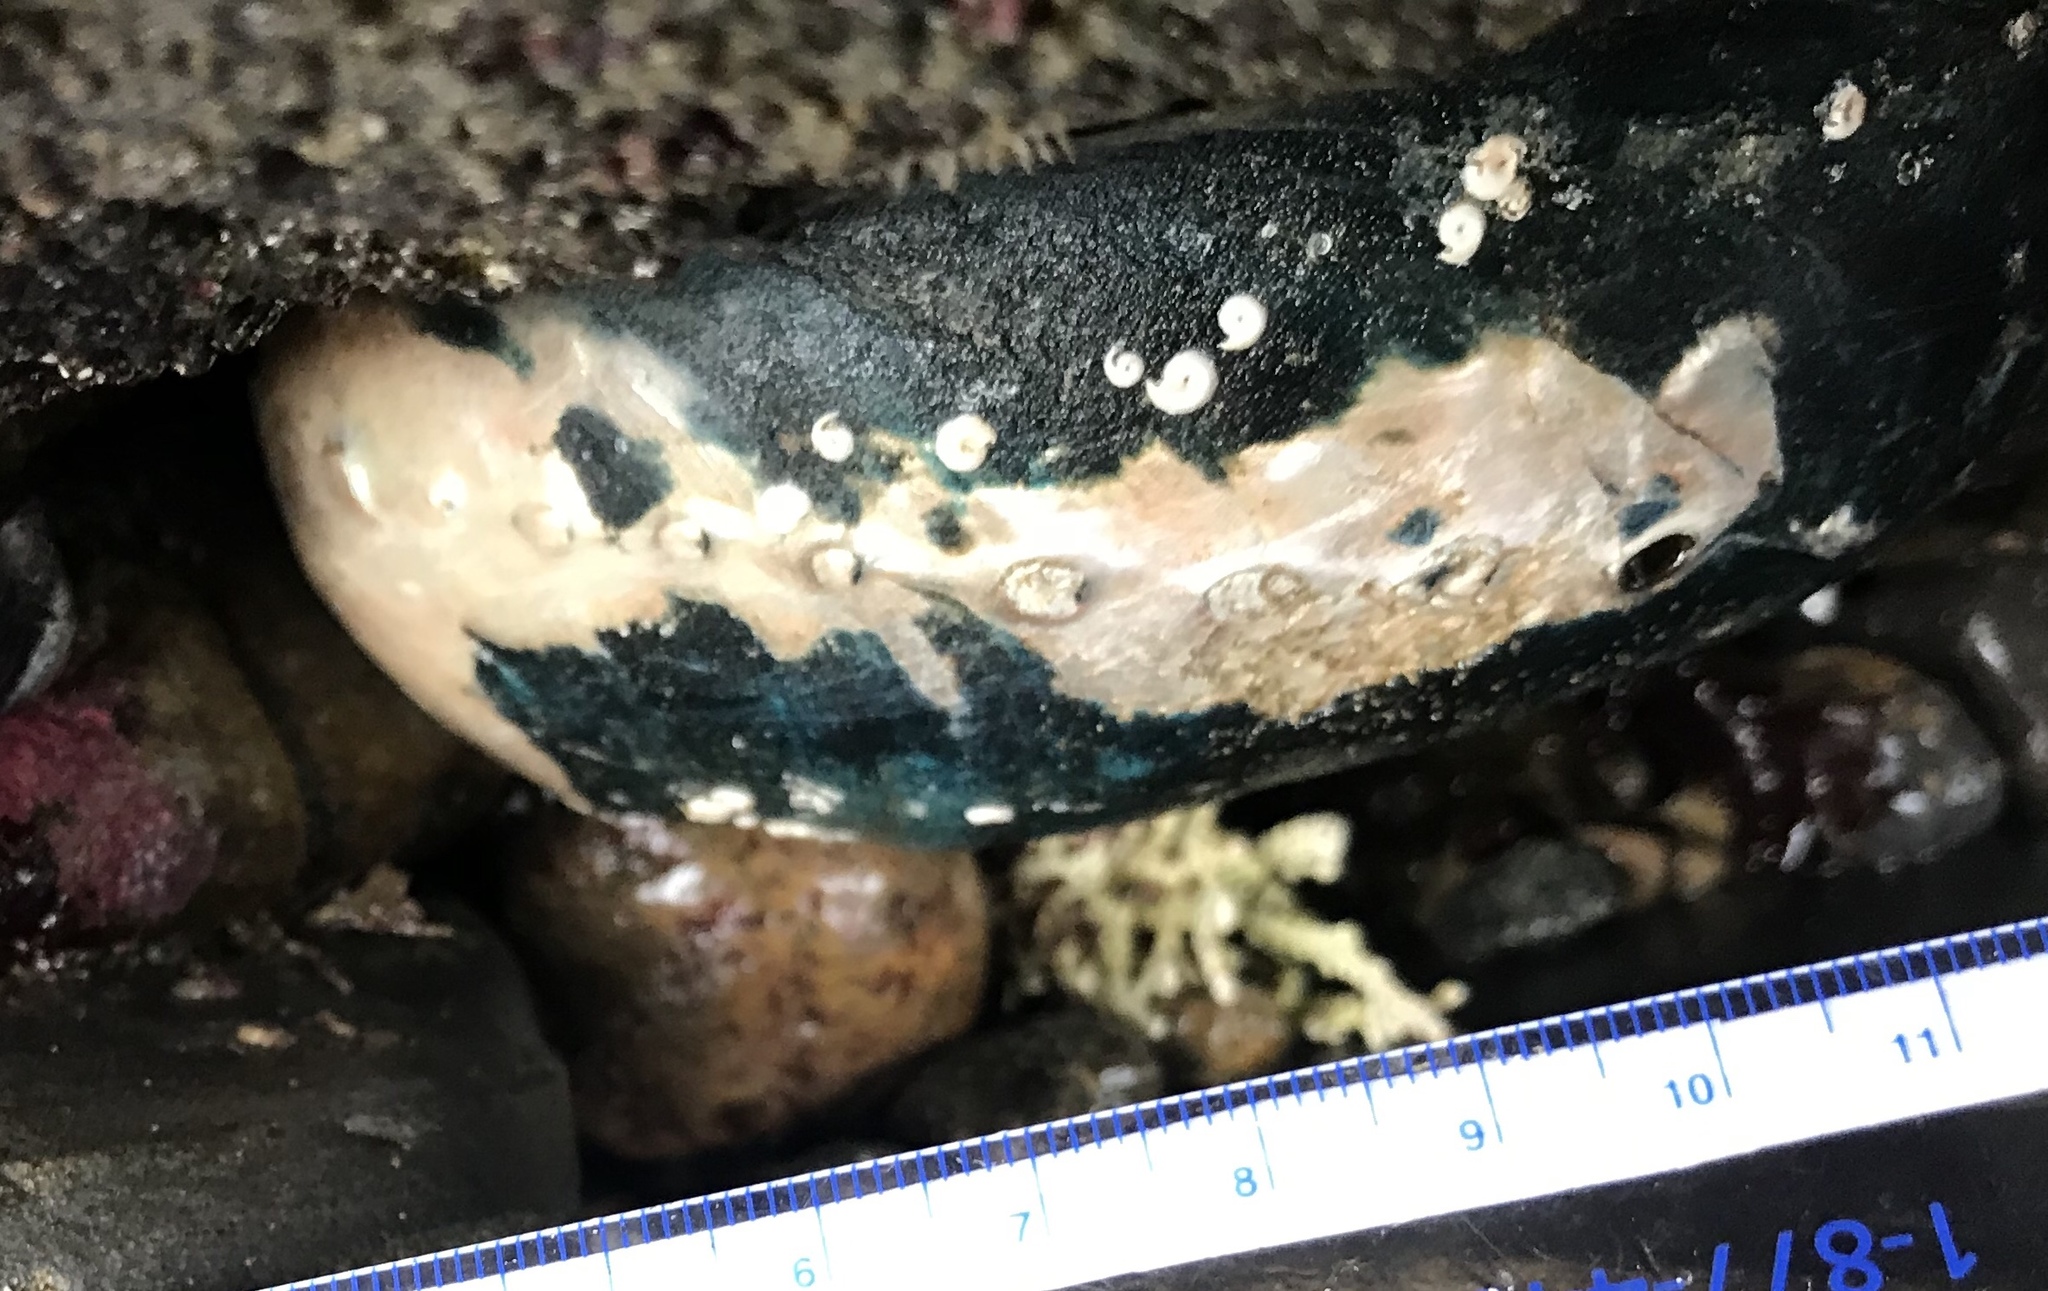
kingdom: Animalia
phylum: Mollusca
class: Gastropoda
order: Lepetellida
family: Haliotidae
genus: Haliotis
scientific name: Haliotis cracherodii
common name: Black abalone
